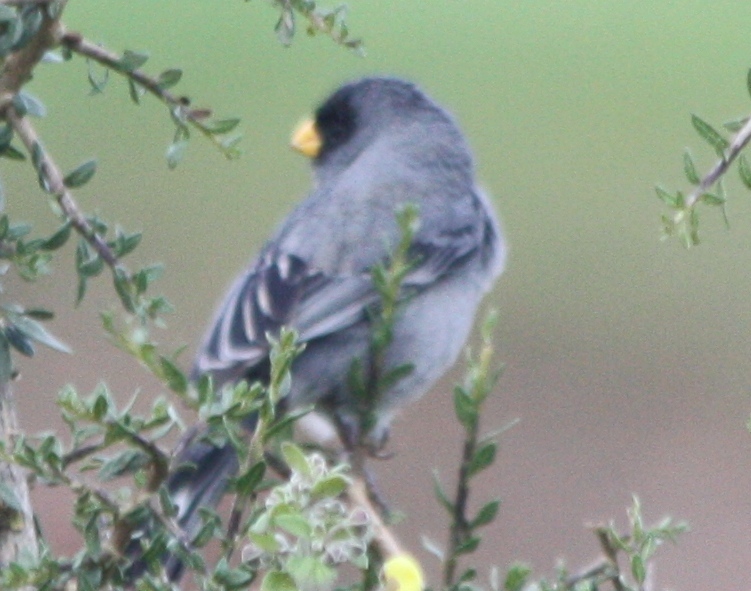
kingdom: Animalia
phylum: Chordata
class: Aves
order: Passeriformes
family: Thraupidae
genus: Catamenia
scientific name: Catamenia analis
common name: Band-tailed seedeater
